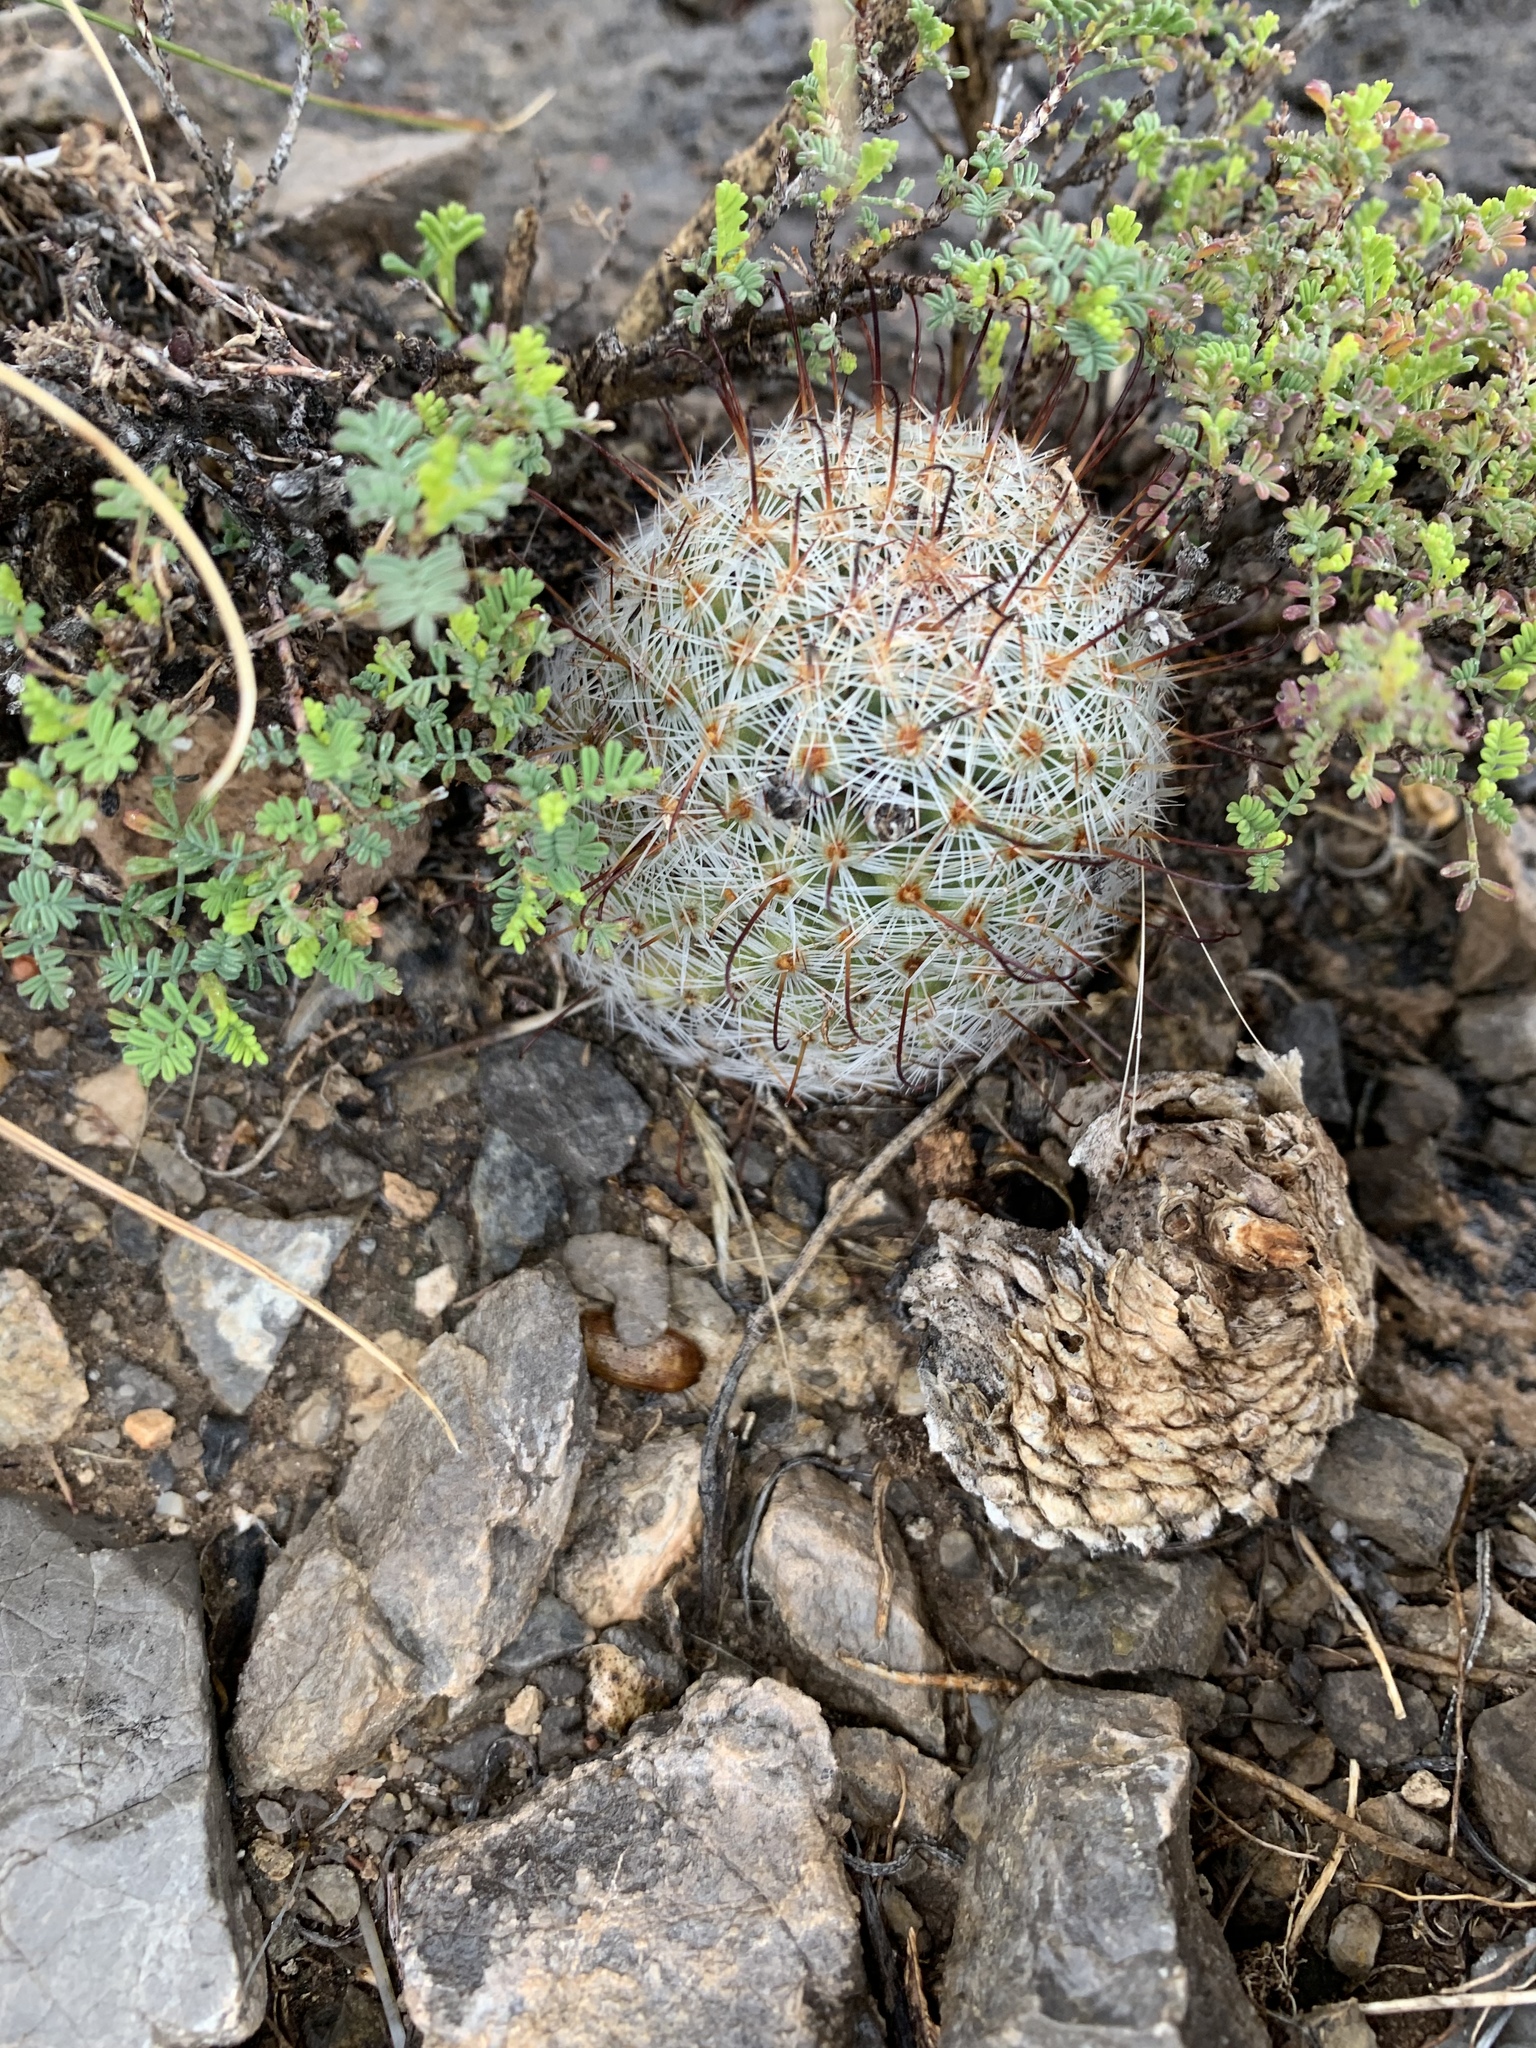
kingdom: Plantae
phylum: Tracheophyta
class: Magnoliopsida
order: Caryophyllales
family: Cactaceae
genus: Cochemiea
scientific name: Cochemiea grahamii
